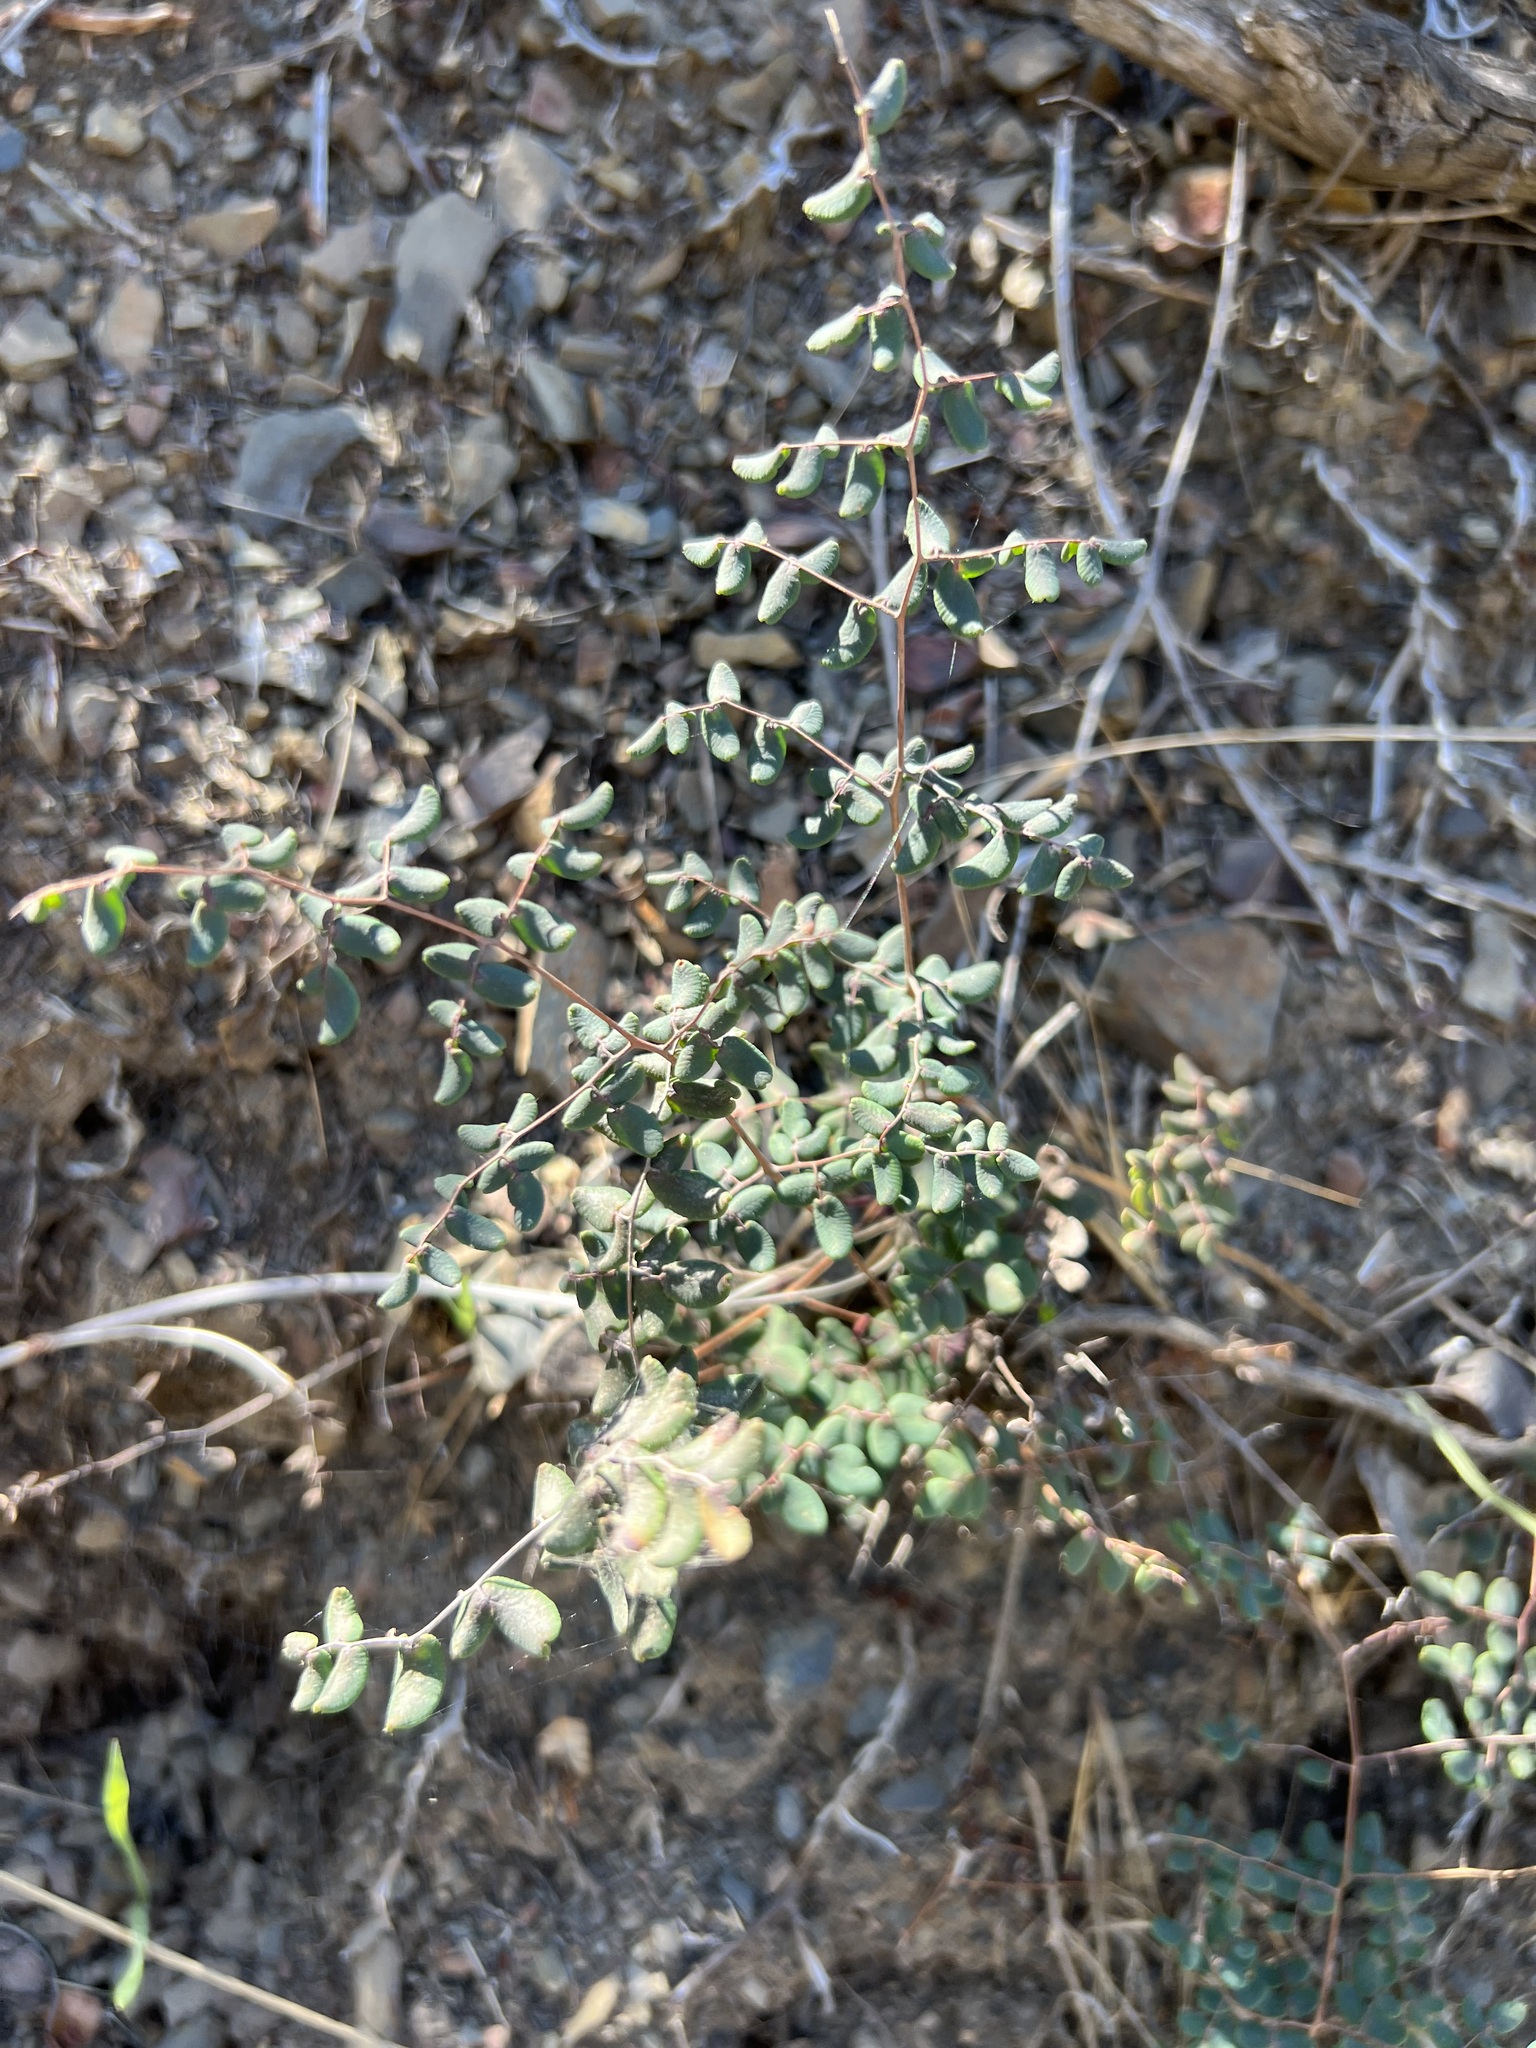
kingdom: Plantae
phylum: Tracheophyta
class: Polypodiopsida
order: Polypodiales
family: Pteridaceae
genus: Pellaea
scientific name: Pellaea andromedifolia
